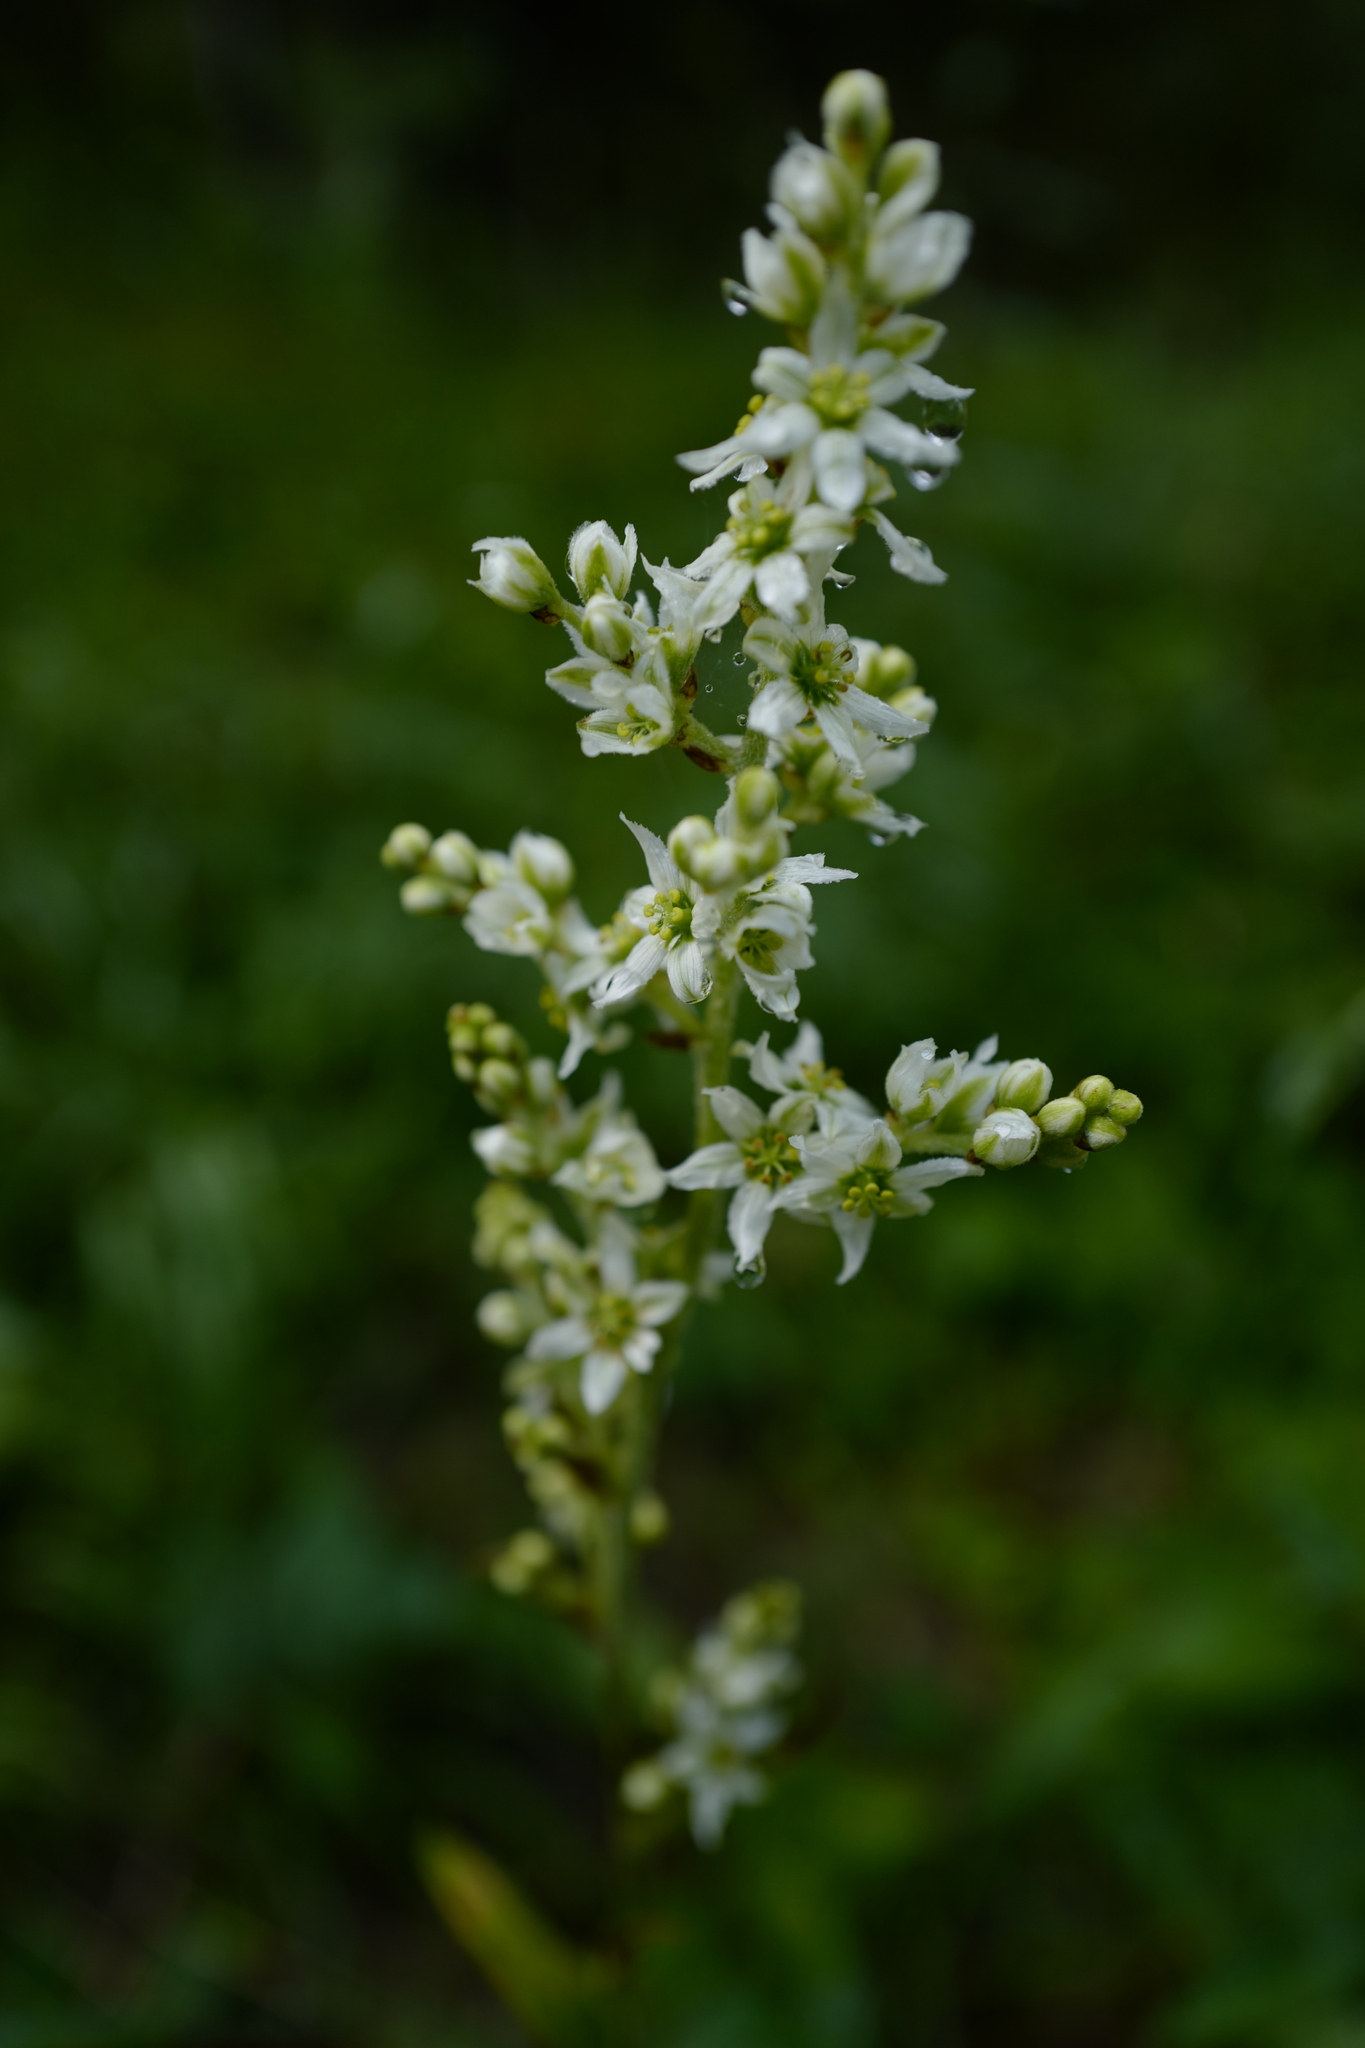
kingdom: Plantae
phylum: Tracheophyta
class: Liliopsida
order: Liliales
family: Melanthiaceae
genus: Veratrum
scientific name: Veratrum album
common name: White veratrum
